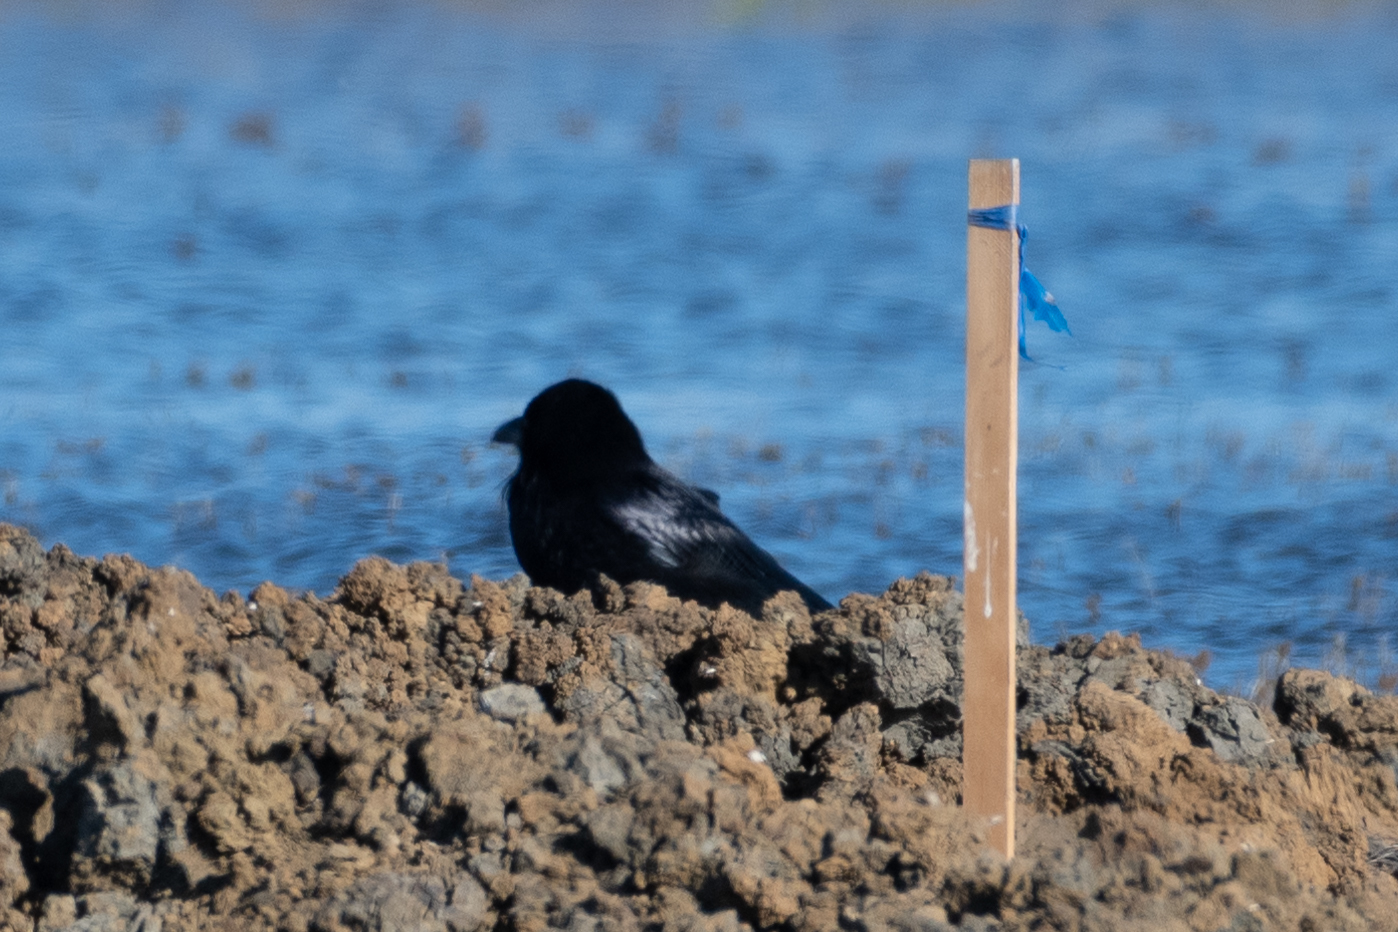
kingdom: Animalia
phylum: Chordata
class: Aves
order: Passeriformes
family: Corvidae
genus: Corvus
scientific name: Corvus corax
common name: Common raven
